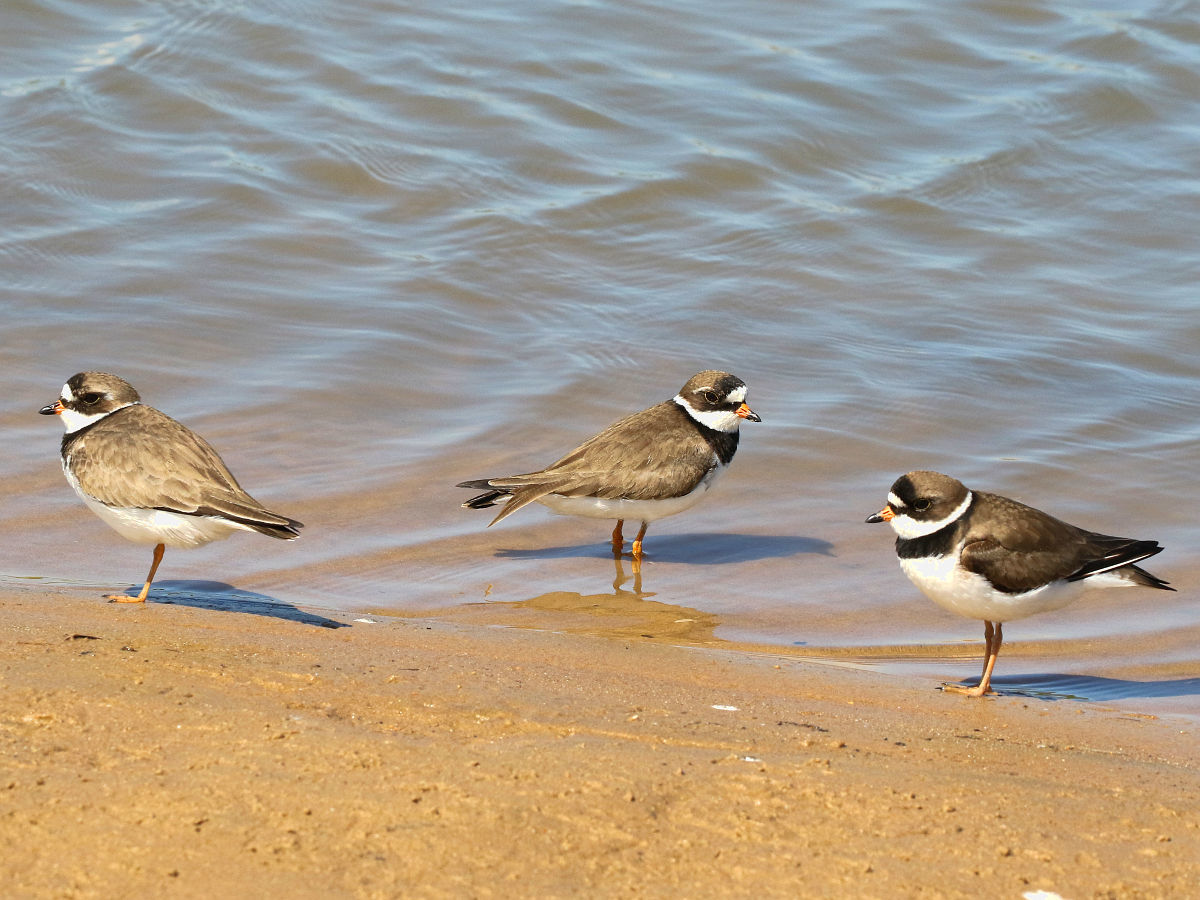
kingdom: Animalia
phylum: Chordata
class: Aves
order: Charadriiformes
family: Charadriidae
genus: Charadrius
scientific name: Charadrius semipalmatus
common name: Semipalmated plover
